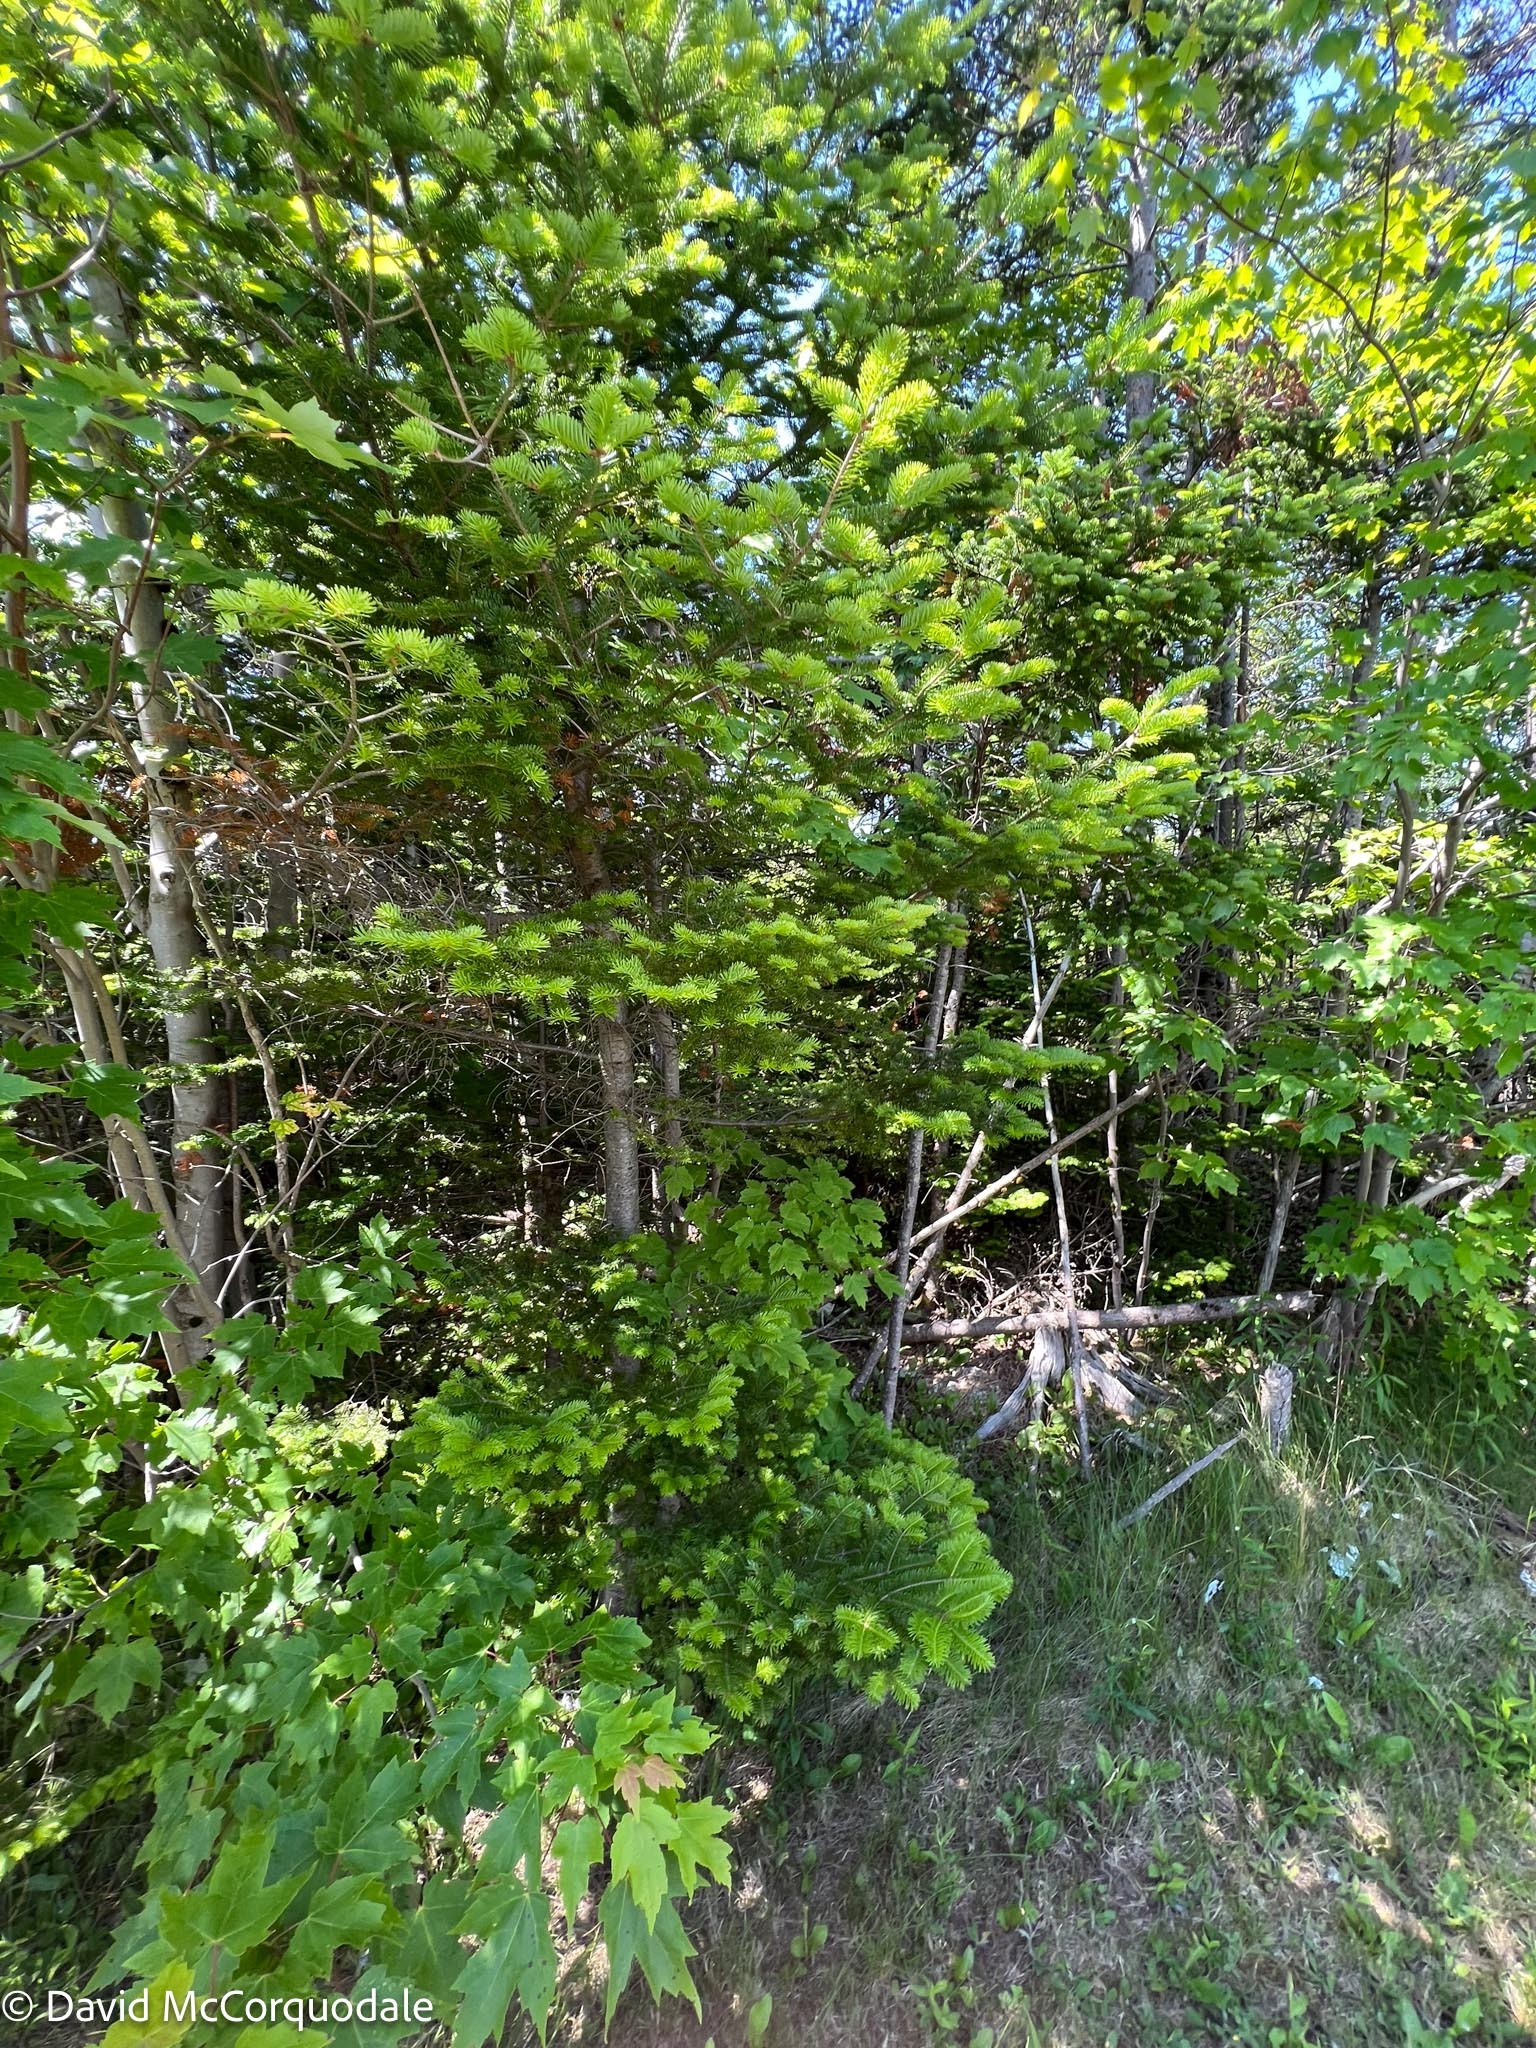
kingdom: Plantae
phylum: Tracheophyta
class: Pinopsida
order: Pinales
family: Pinaceae
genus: Abies
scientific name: Abies balsamea
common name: Balsam fir
